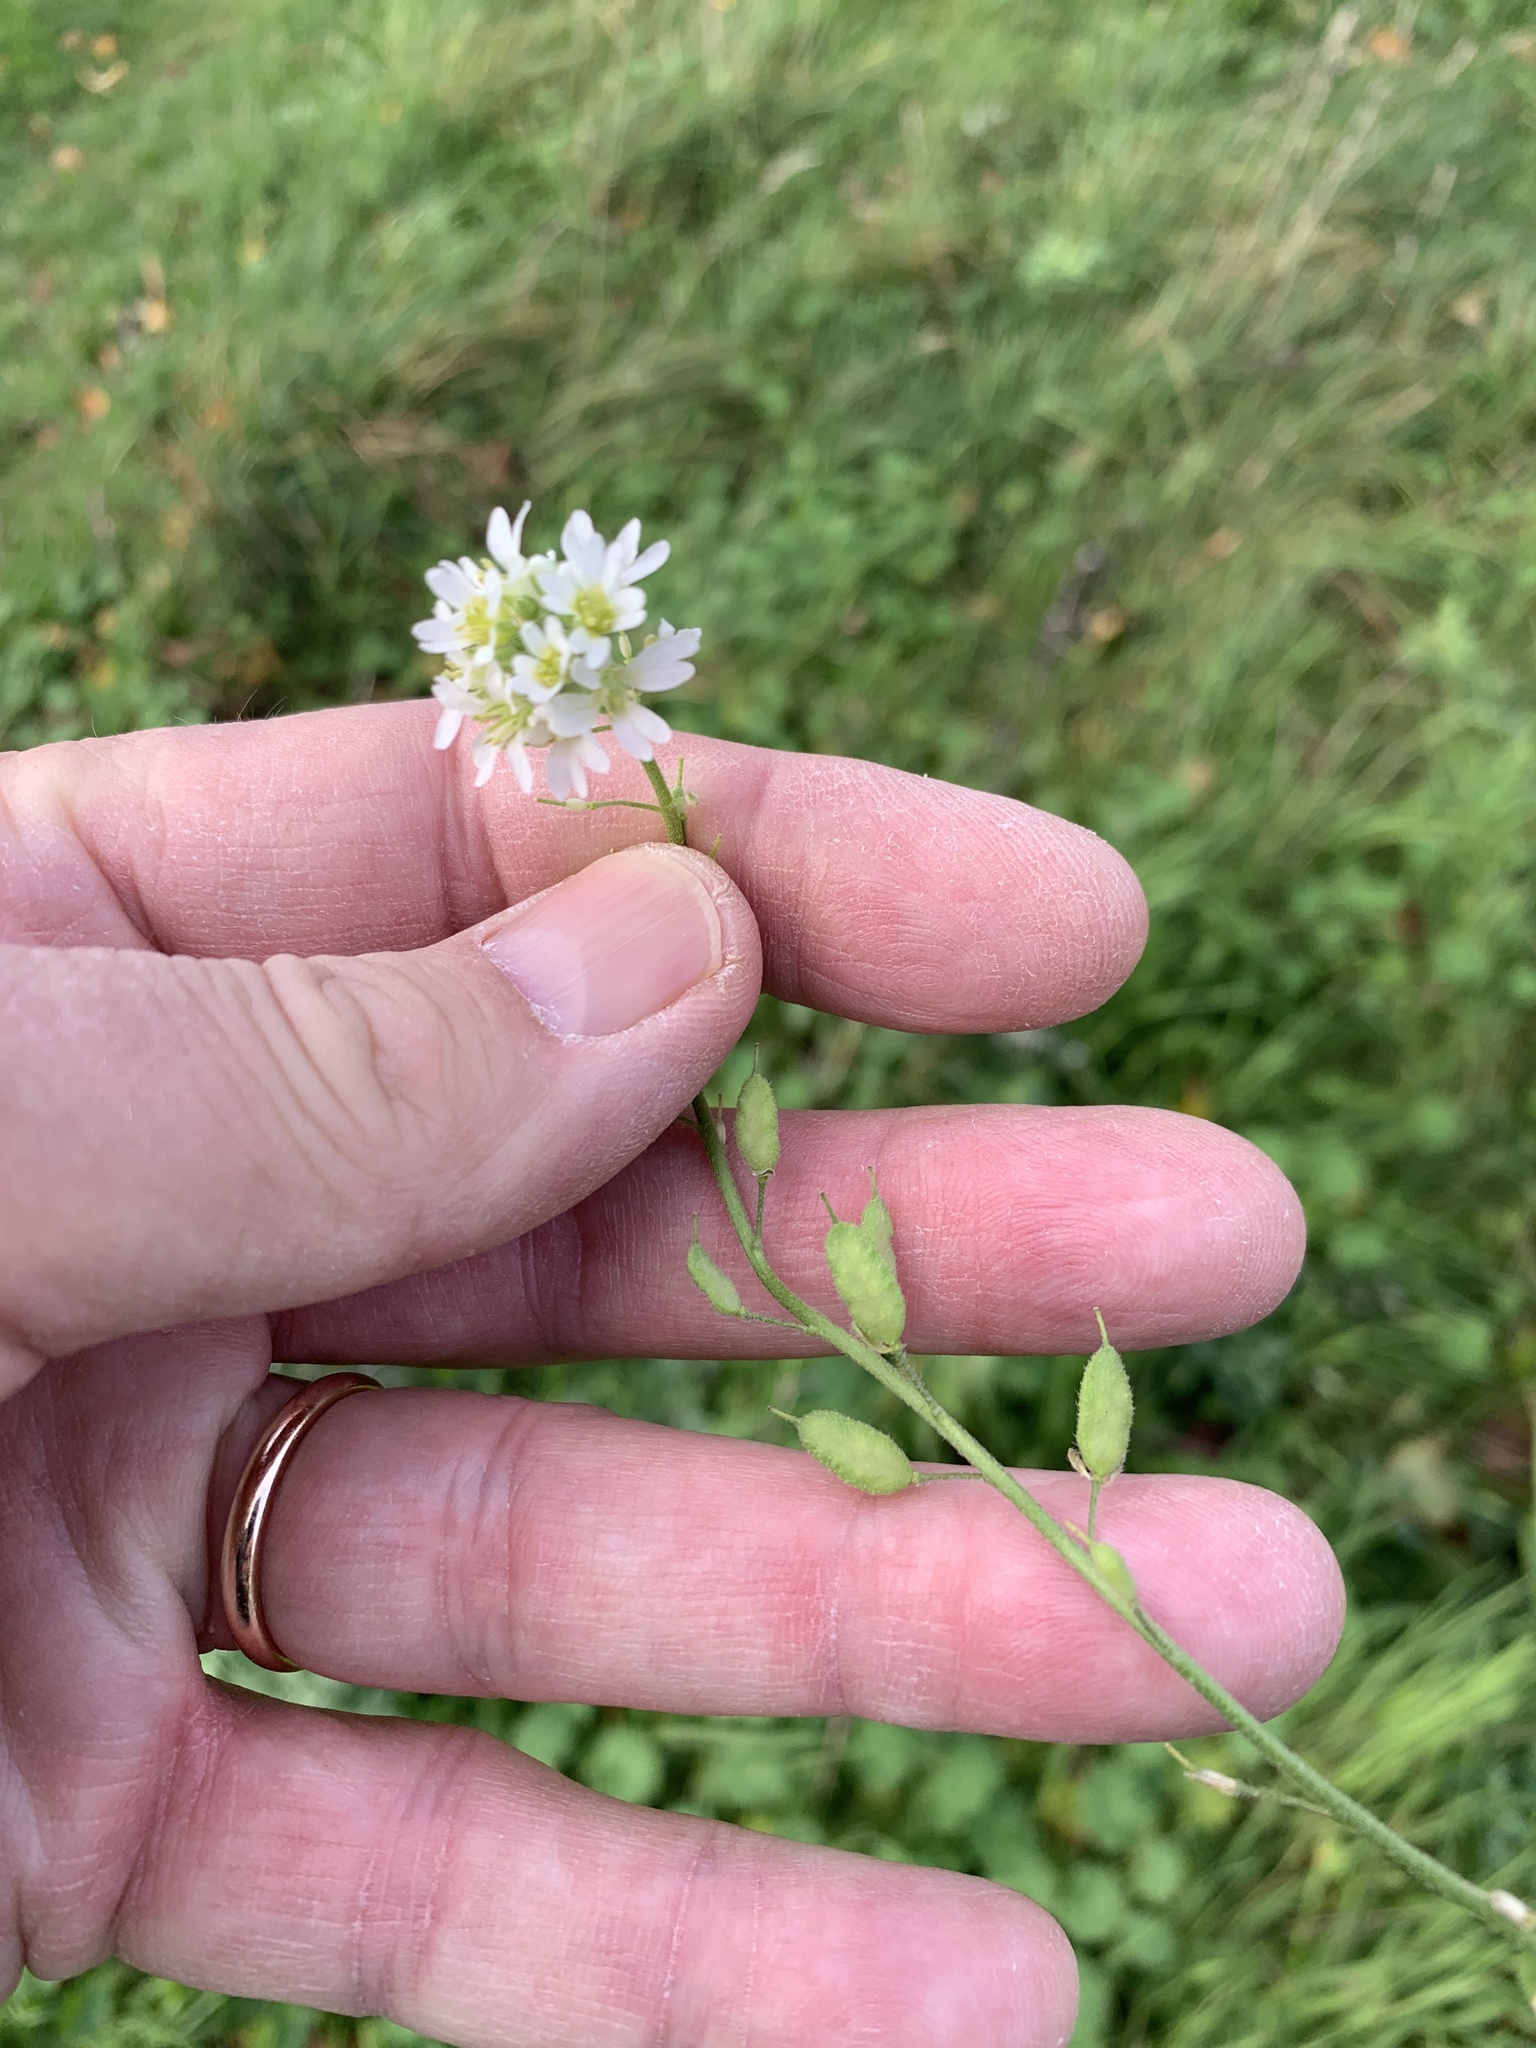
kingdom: Plantae
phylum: Tracheophyta
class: Magnoliopsida
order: Brassicales
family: Brassicaceae
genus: Berteroa
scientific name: Berteroa incana
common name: Hoary alison
